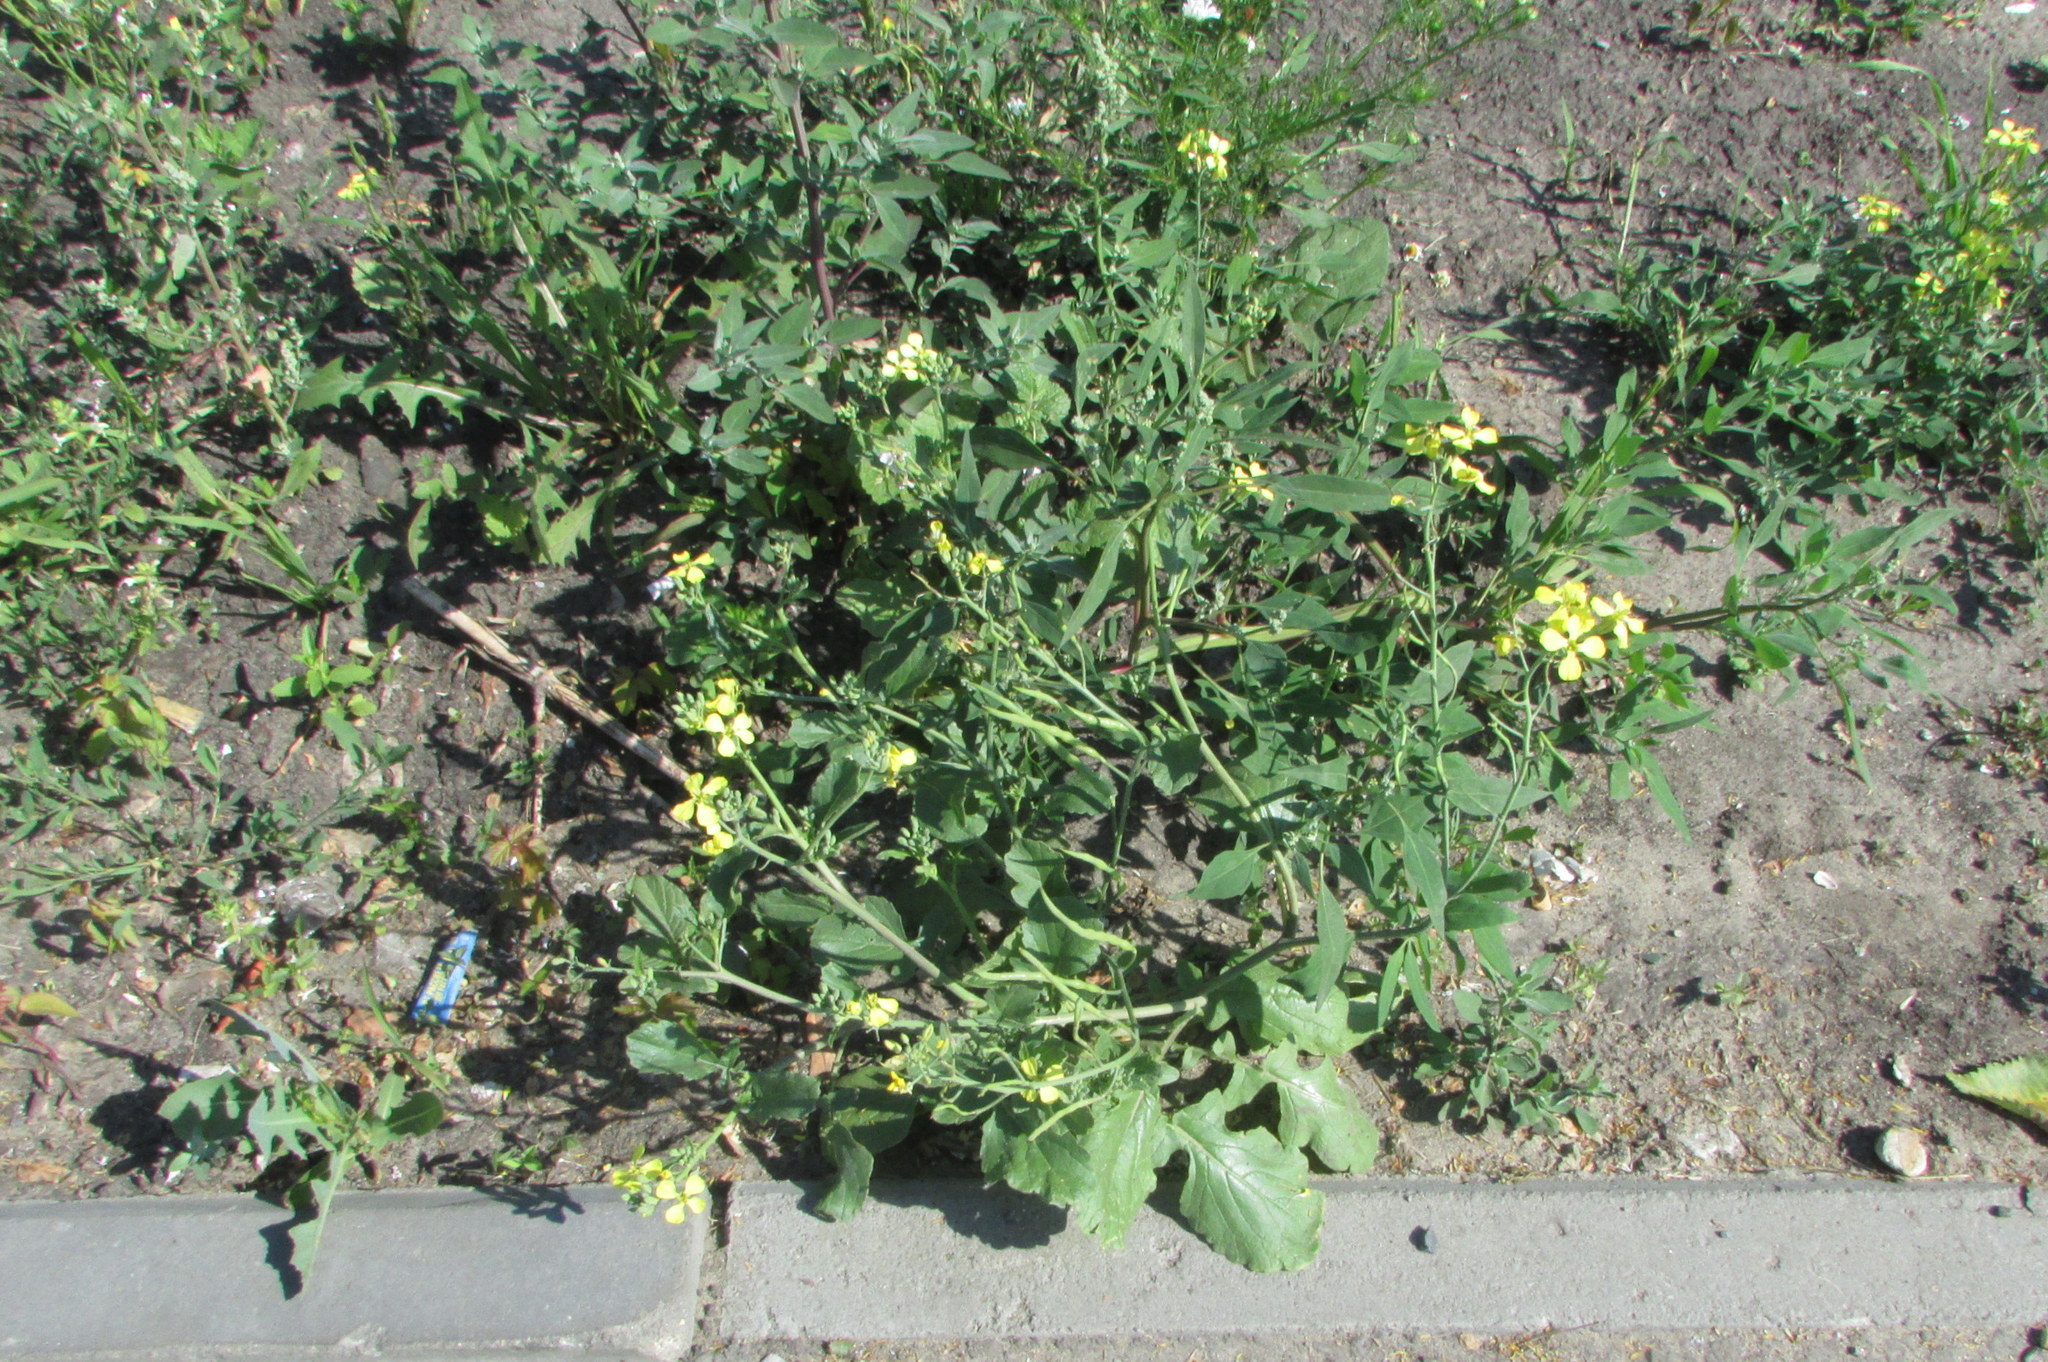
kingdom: Plantae
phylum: Tracheophyta
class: Magnoliopsida
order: Brassicales
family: Brassicaceae
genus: Raphanus
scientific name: Raphanus raphanistrum
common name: Wild radish
